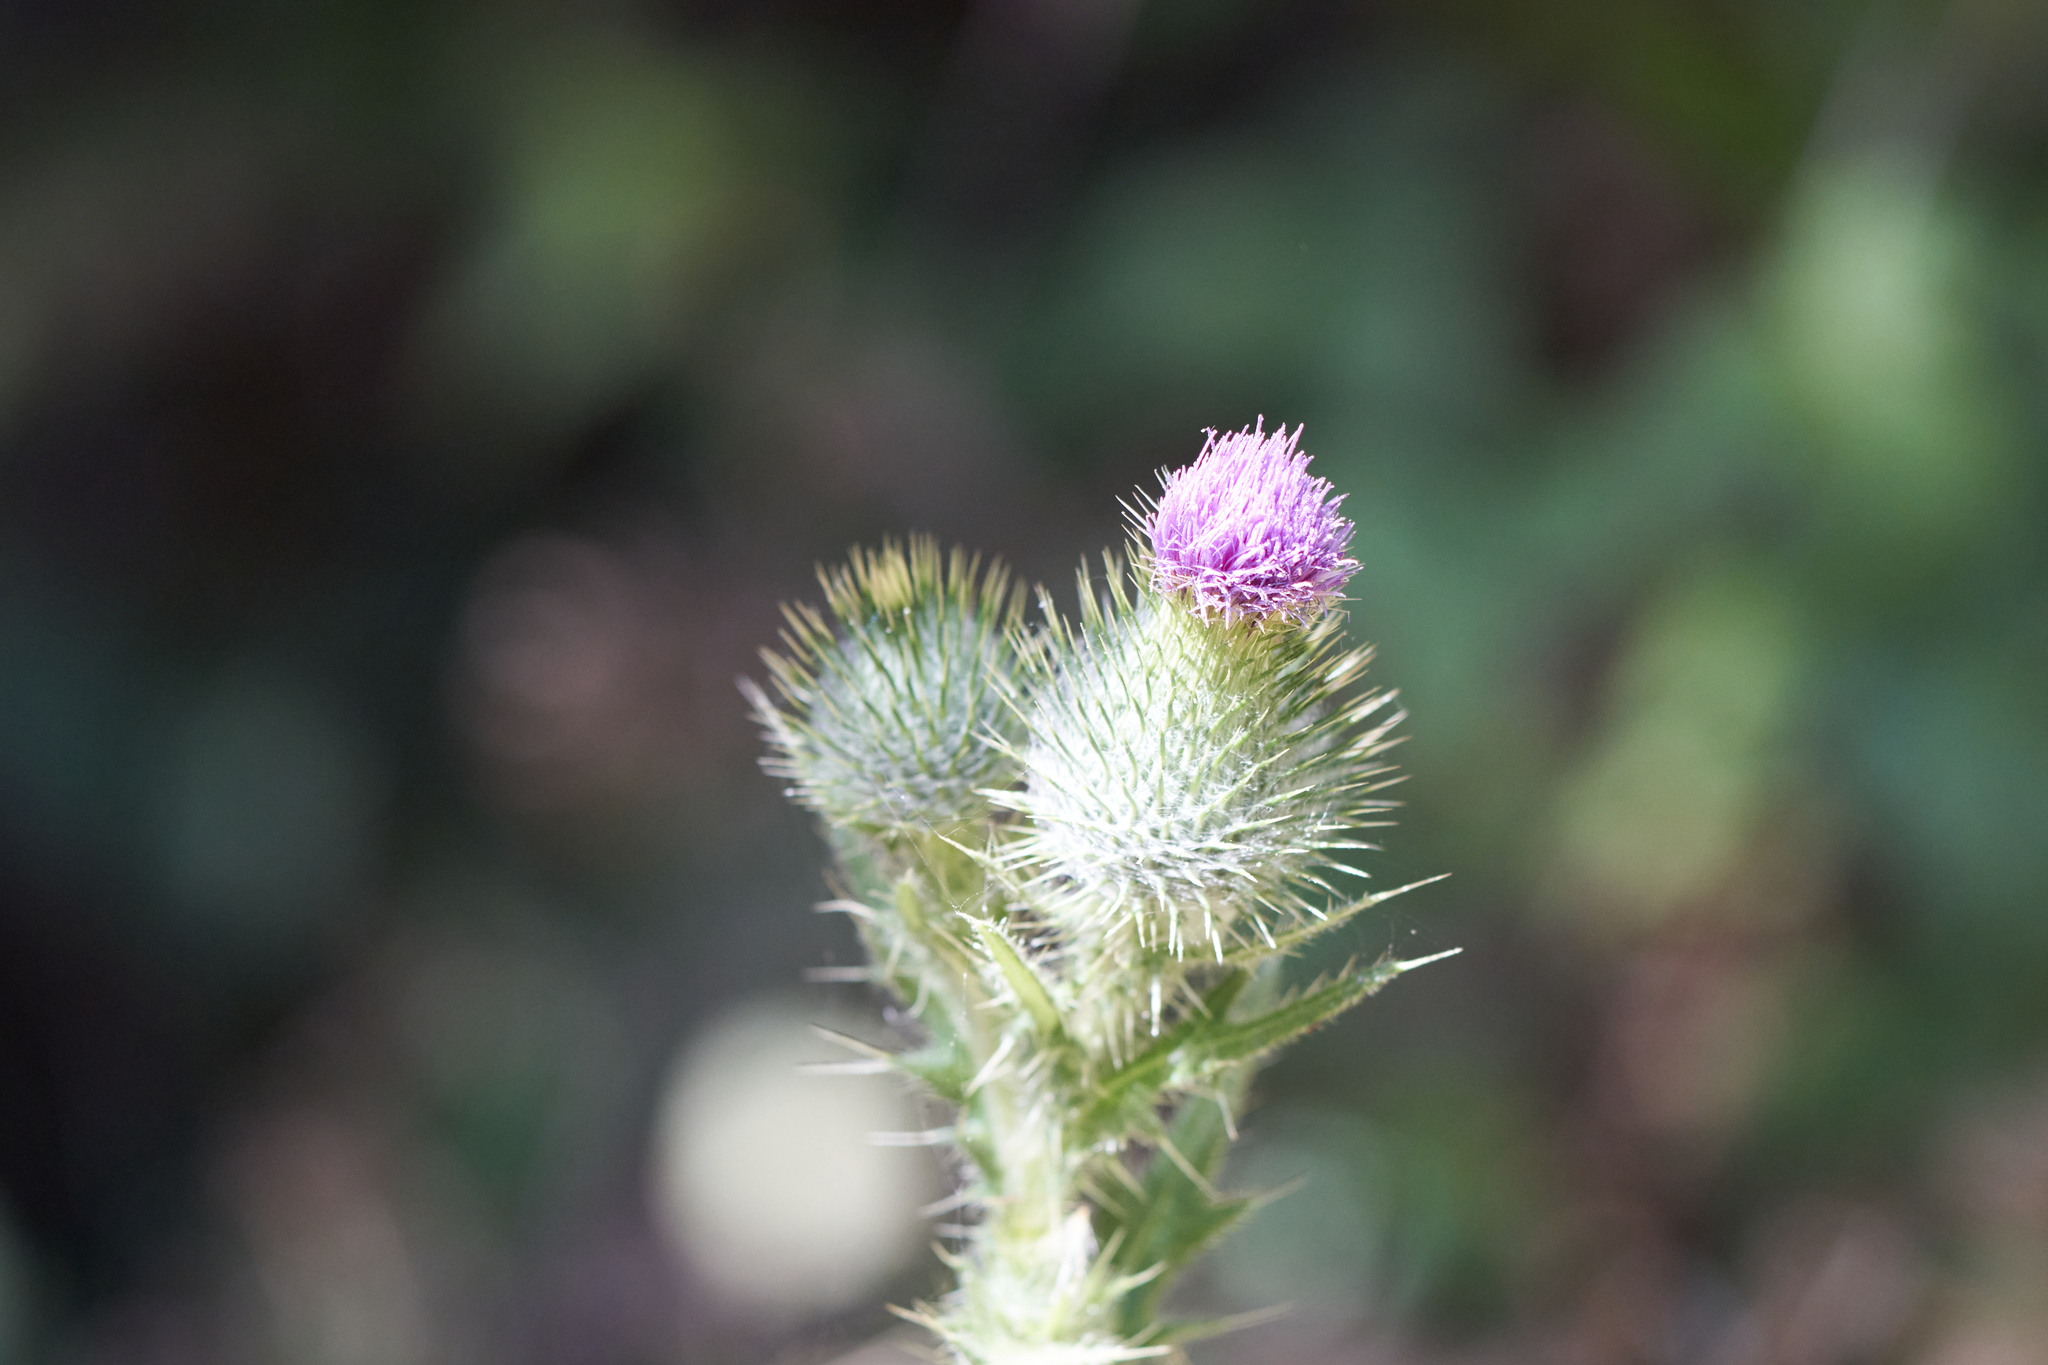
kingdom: Plantae
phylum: Tracheophyta
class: Magnoliopsida
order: Asterales
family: Asteraceae
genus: Cirsium
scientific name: Cirsium vulgare
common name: Bull thistle
